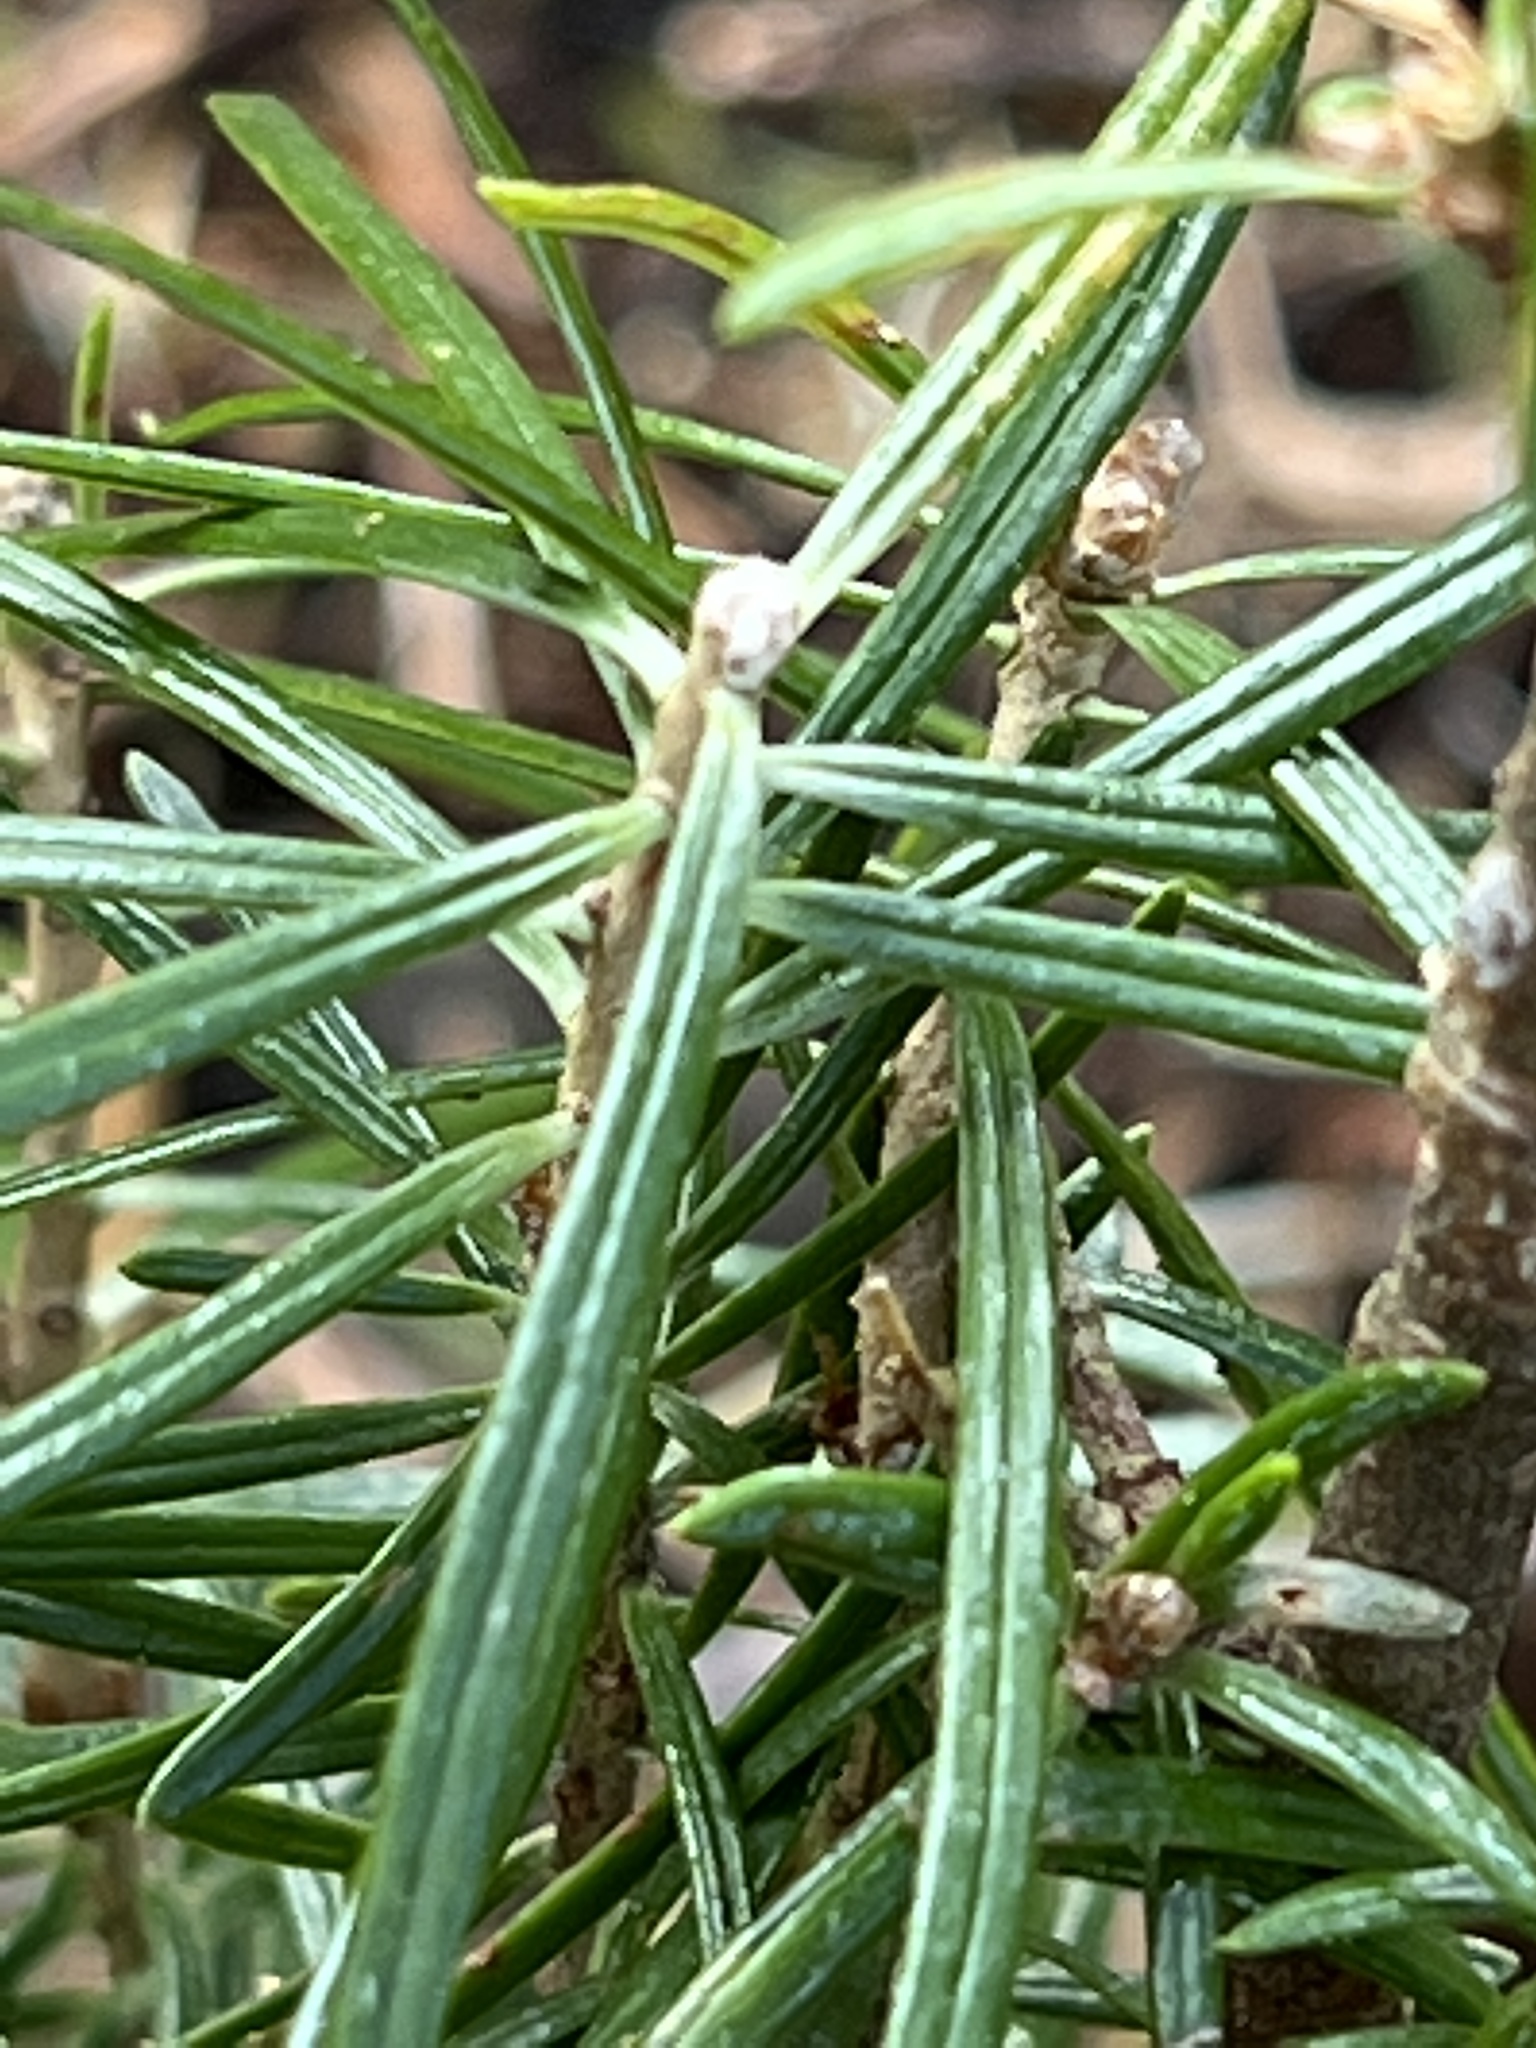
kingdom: Plantae
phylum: Tracheophyta
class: Pinopsida
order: Pinales
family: Pinaceae
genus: Abies
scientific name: Abies balsamea
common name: Balsam fir
